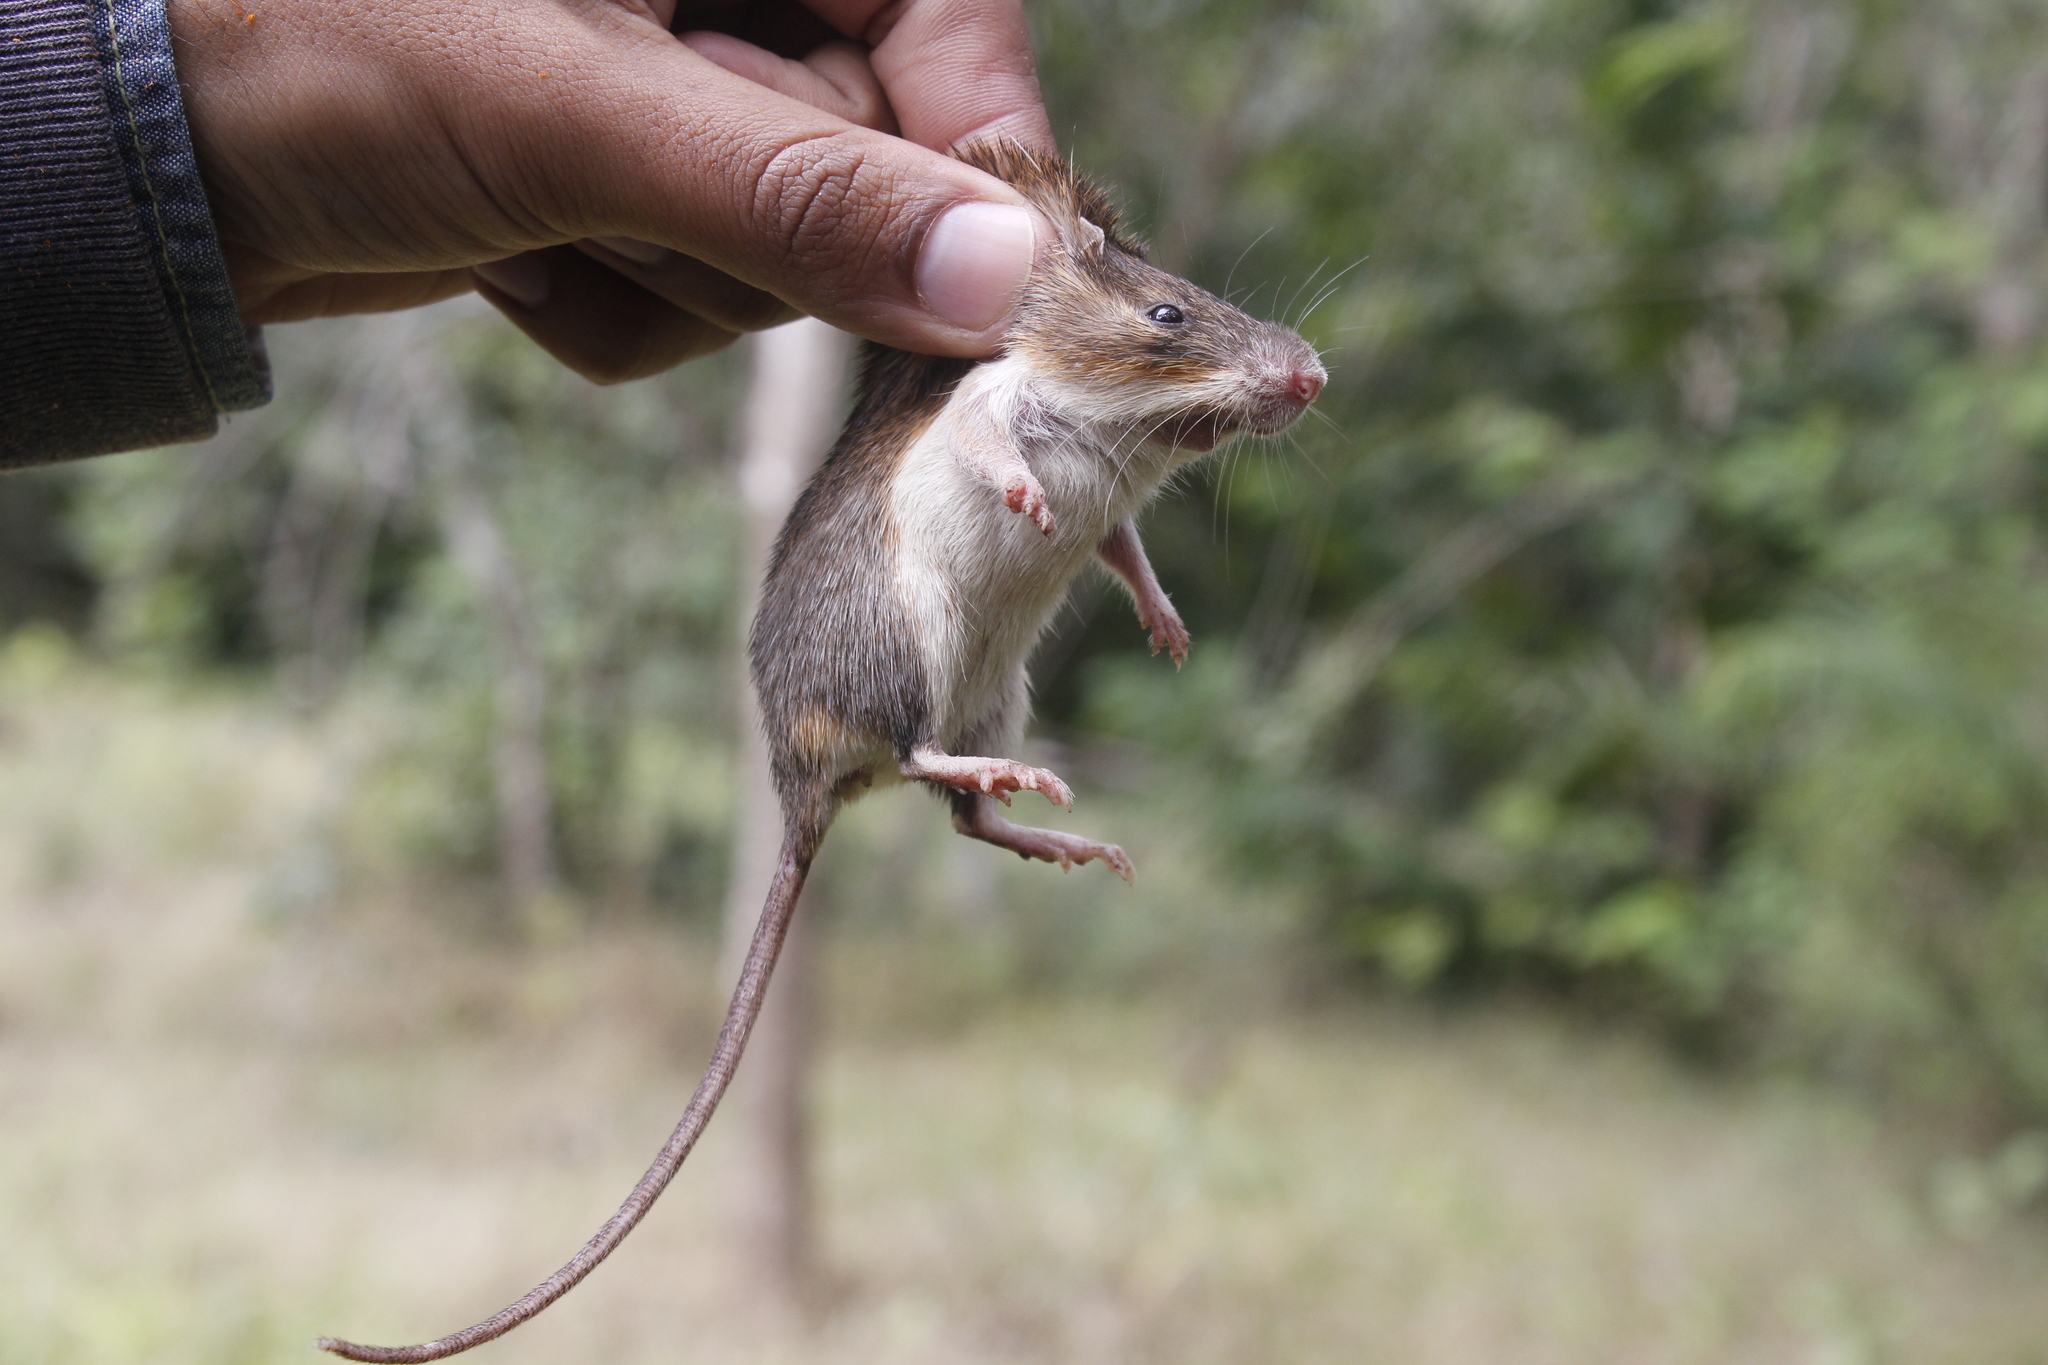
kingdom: Animalia
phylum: Chordata
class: Mammalia
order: Rodentia
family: Heteromyidae
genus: Liomys
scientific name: Liomys pictus
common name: Painted spiny pocket mouse
